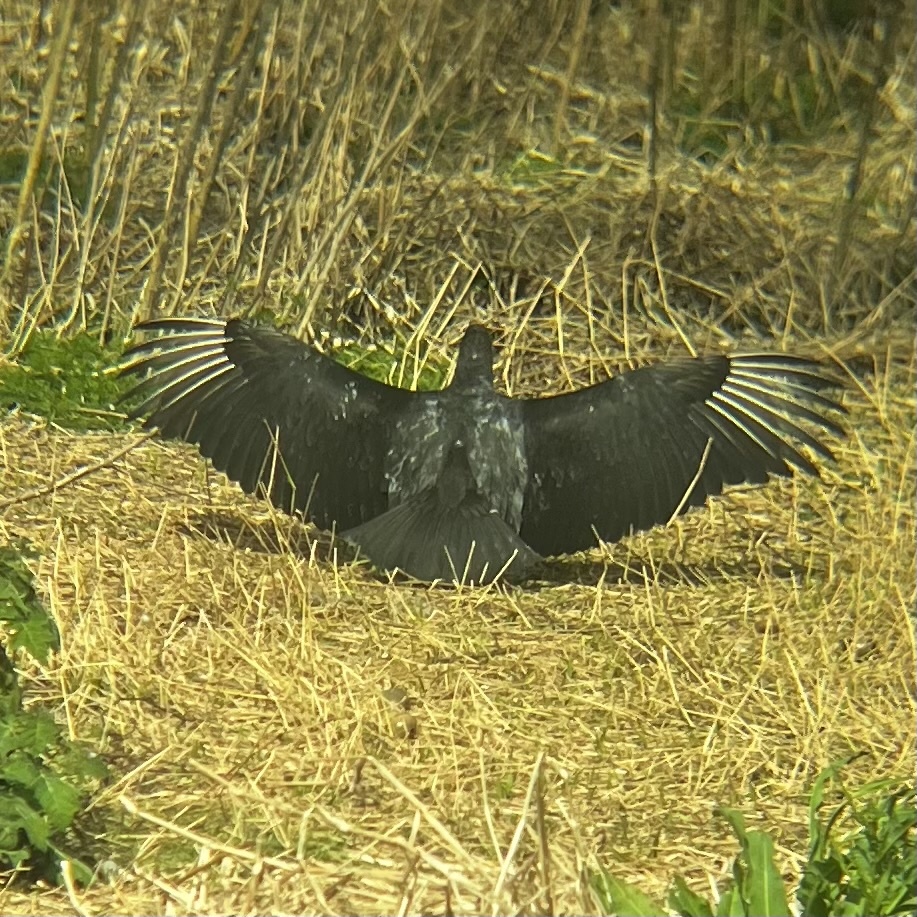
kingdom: Animalia
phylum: Chordata
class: Aves
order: Accipitriformes
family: Cathartidae
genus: Coragyps
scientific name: Coragyps atratus
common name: Black vulture
